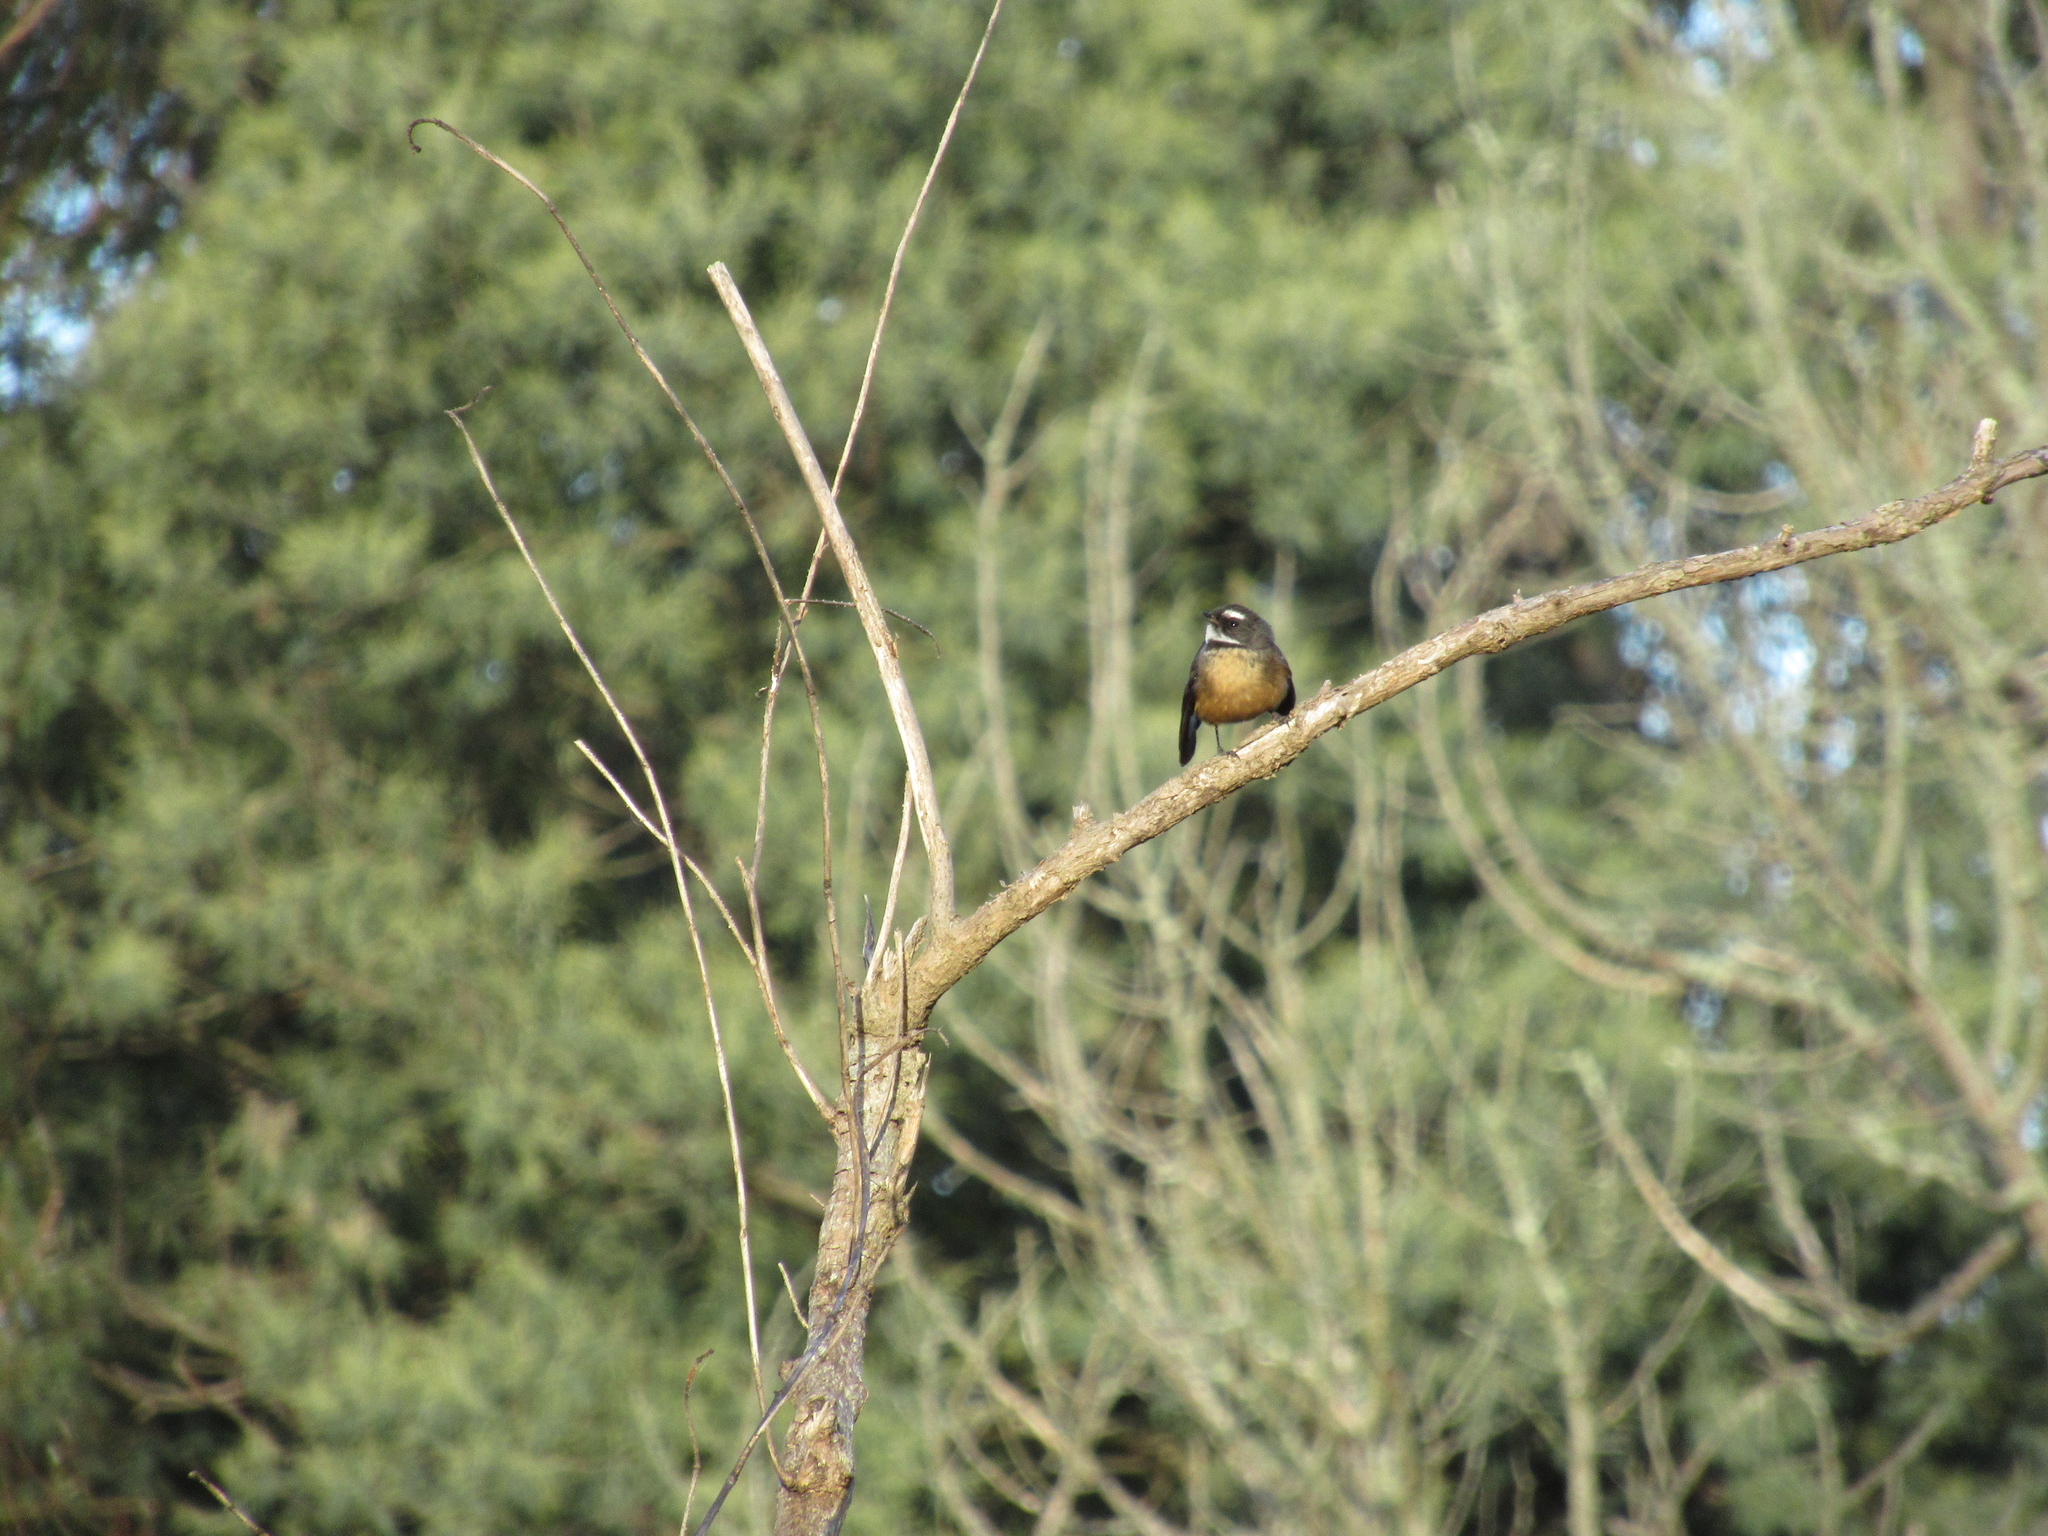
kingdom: Animalia
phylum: Chordata
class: Aves
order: Passeriformes
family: Rhipiduridae
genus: Rhipidura
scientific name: Rhipidura fuliginosa
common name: New zealand fantail
